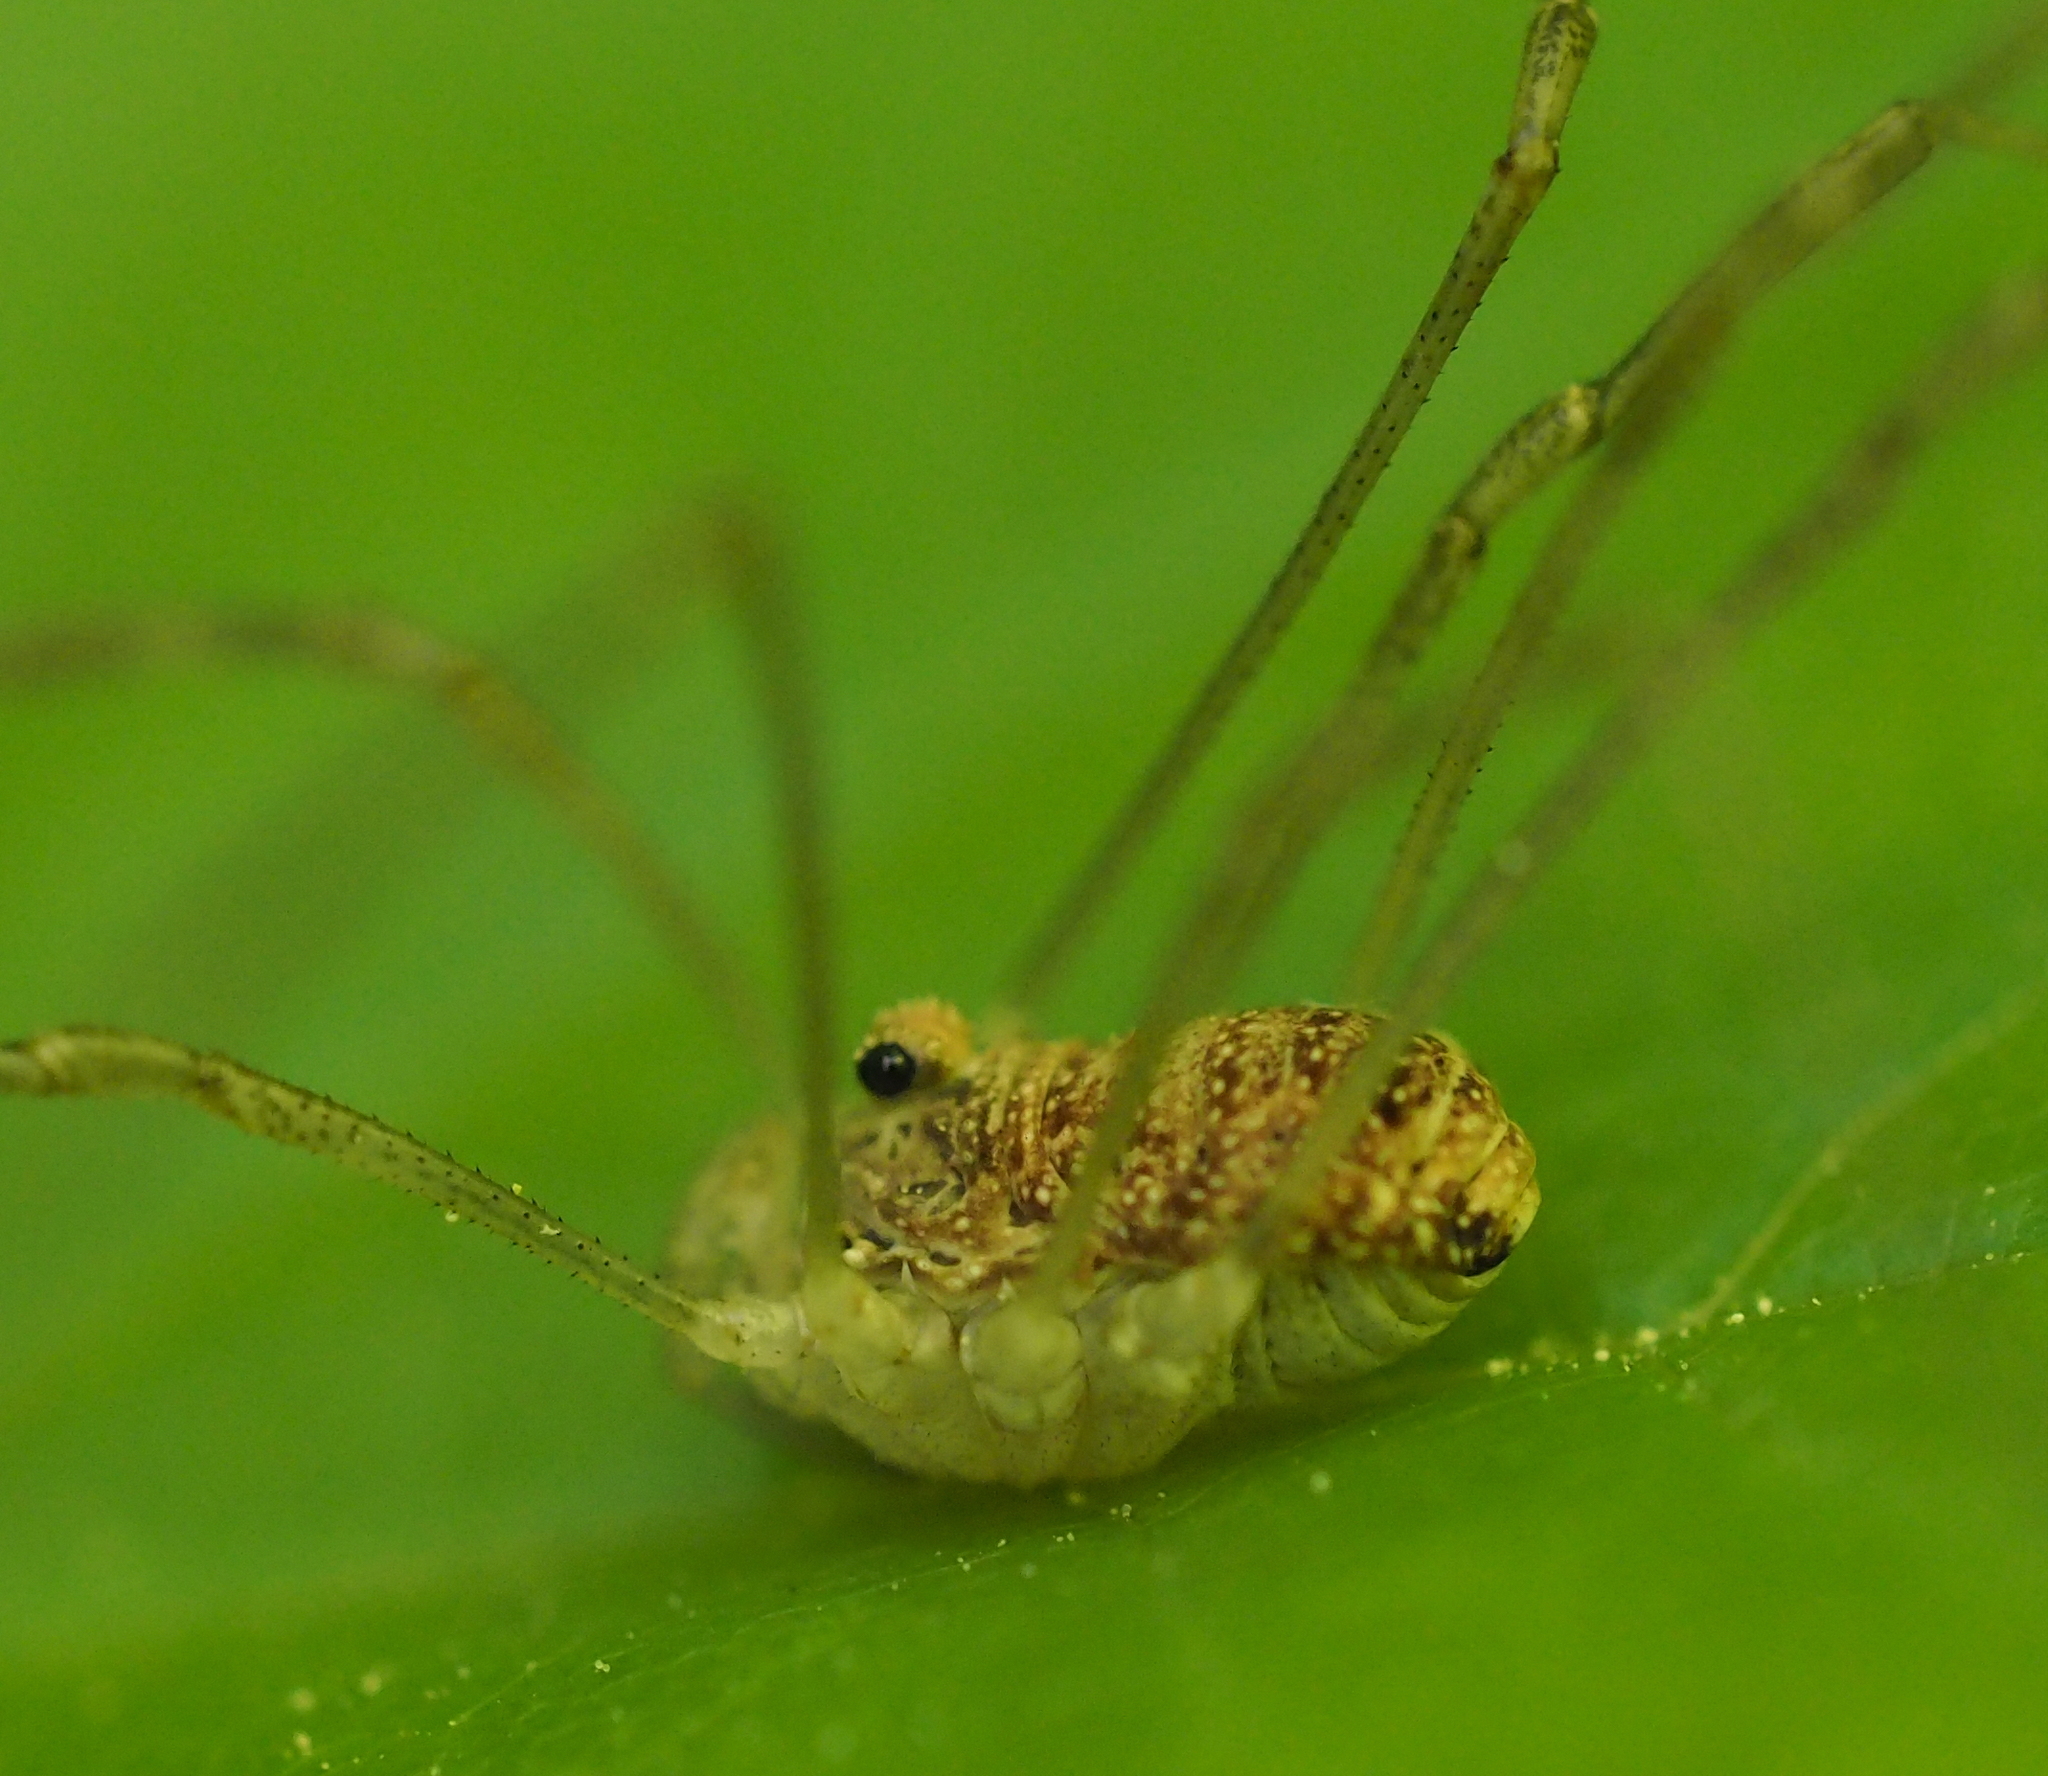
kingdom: Animalia
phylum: Arthropoda
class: Arachnida
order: Opiliones
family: Phalangiidae
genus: Rilaena
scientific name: Rilaena triangularis
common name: Spring harvestman
